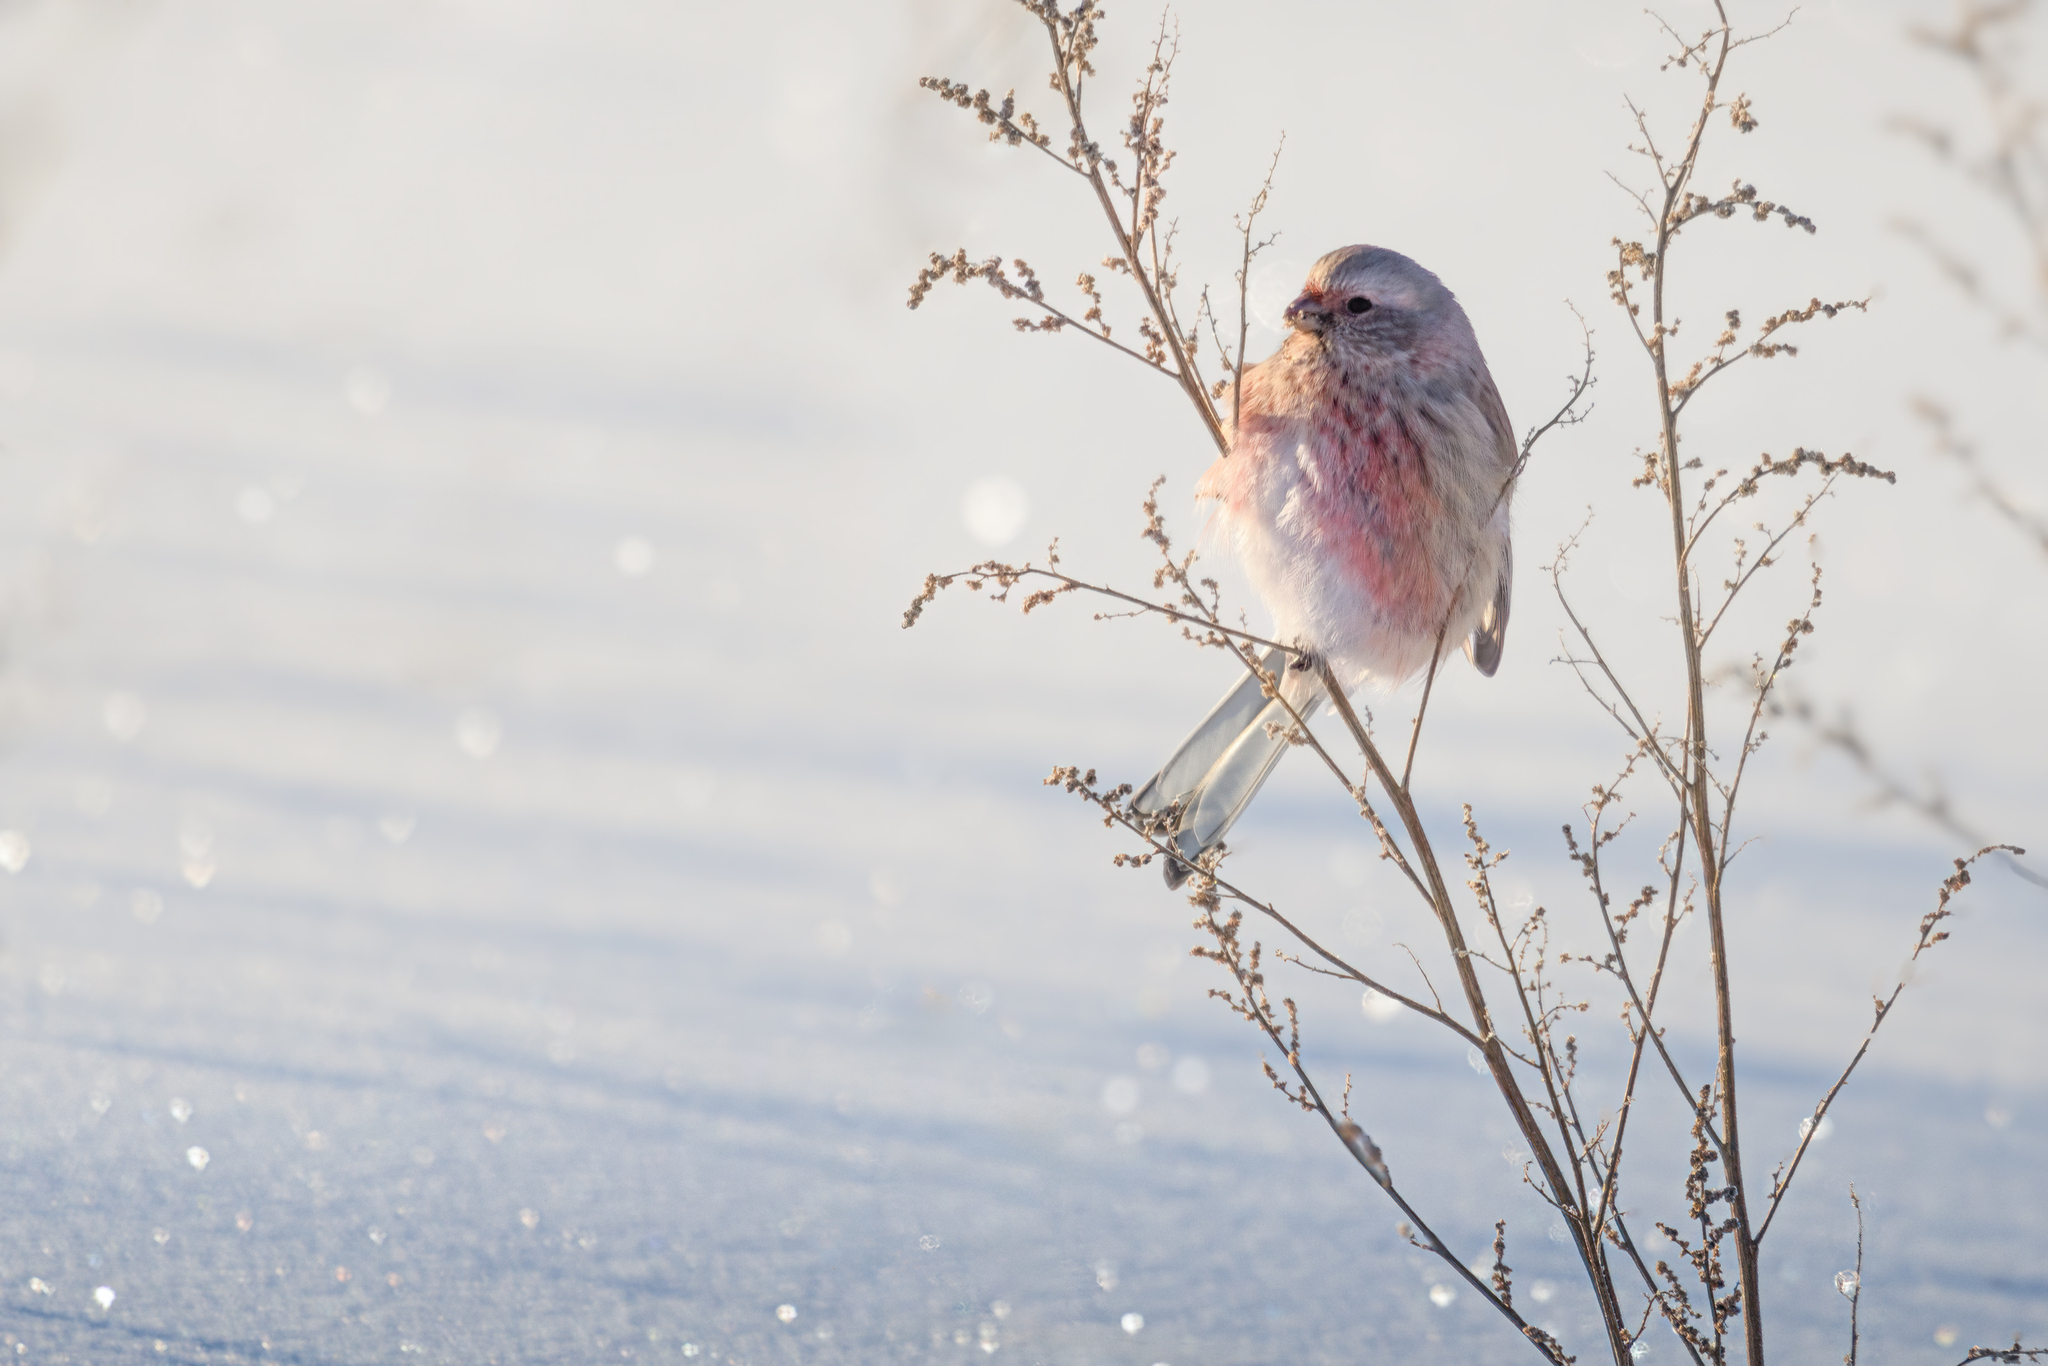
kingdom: Animalia
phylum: Chordata
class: Aves
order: Passeriformes
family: Fringillidae
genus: Carpodacus
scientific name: Carpodacus sibiricus
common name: Long-tailed rosefinch
